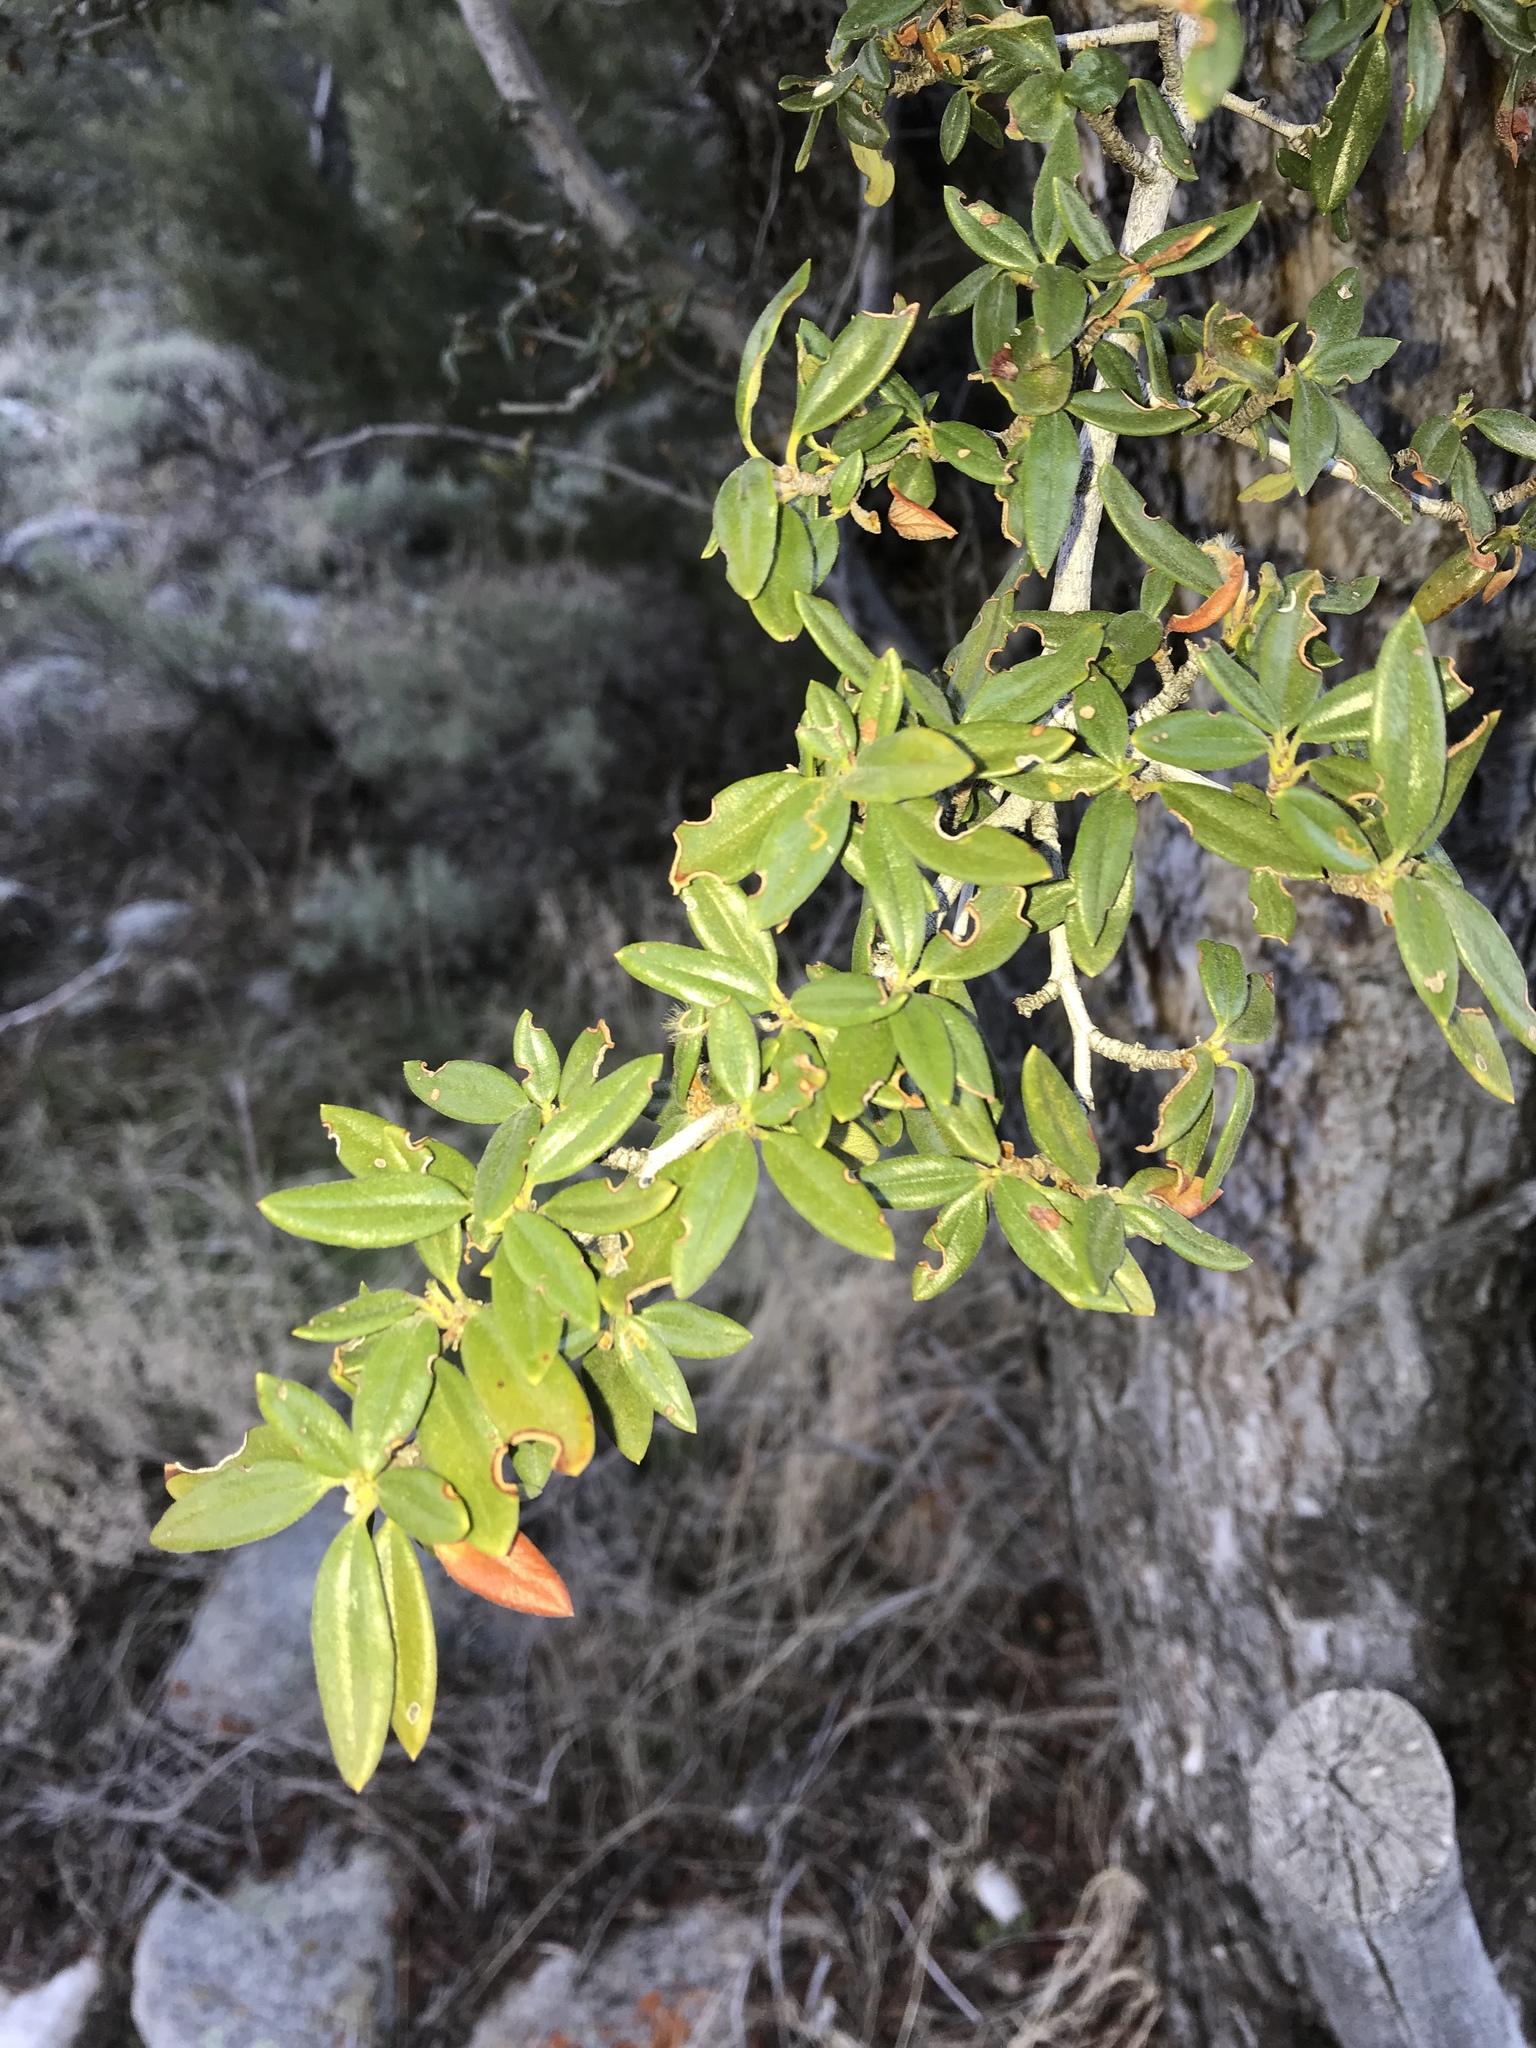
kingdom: Plantae
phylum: Tracheophyta
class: Magnoliopsida
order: Rosales
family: Rosaceae
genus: Cercocarpus
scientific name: Cercocarpus ledifolius
